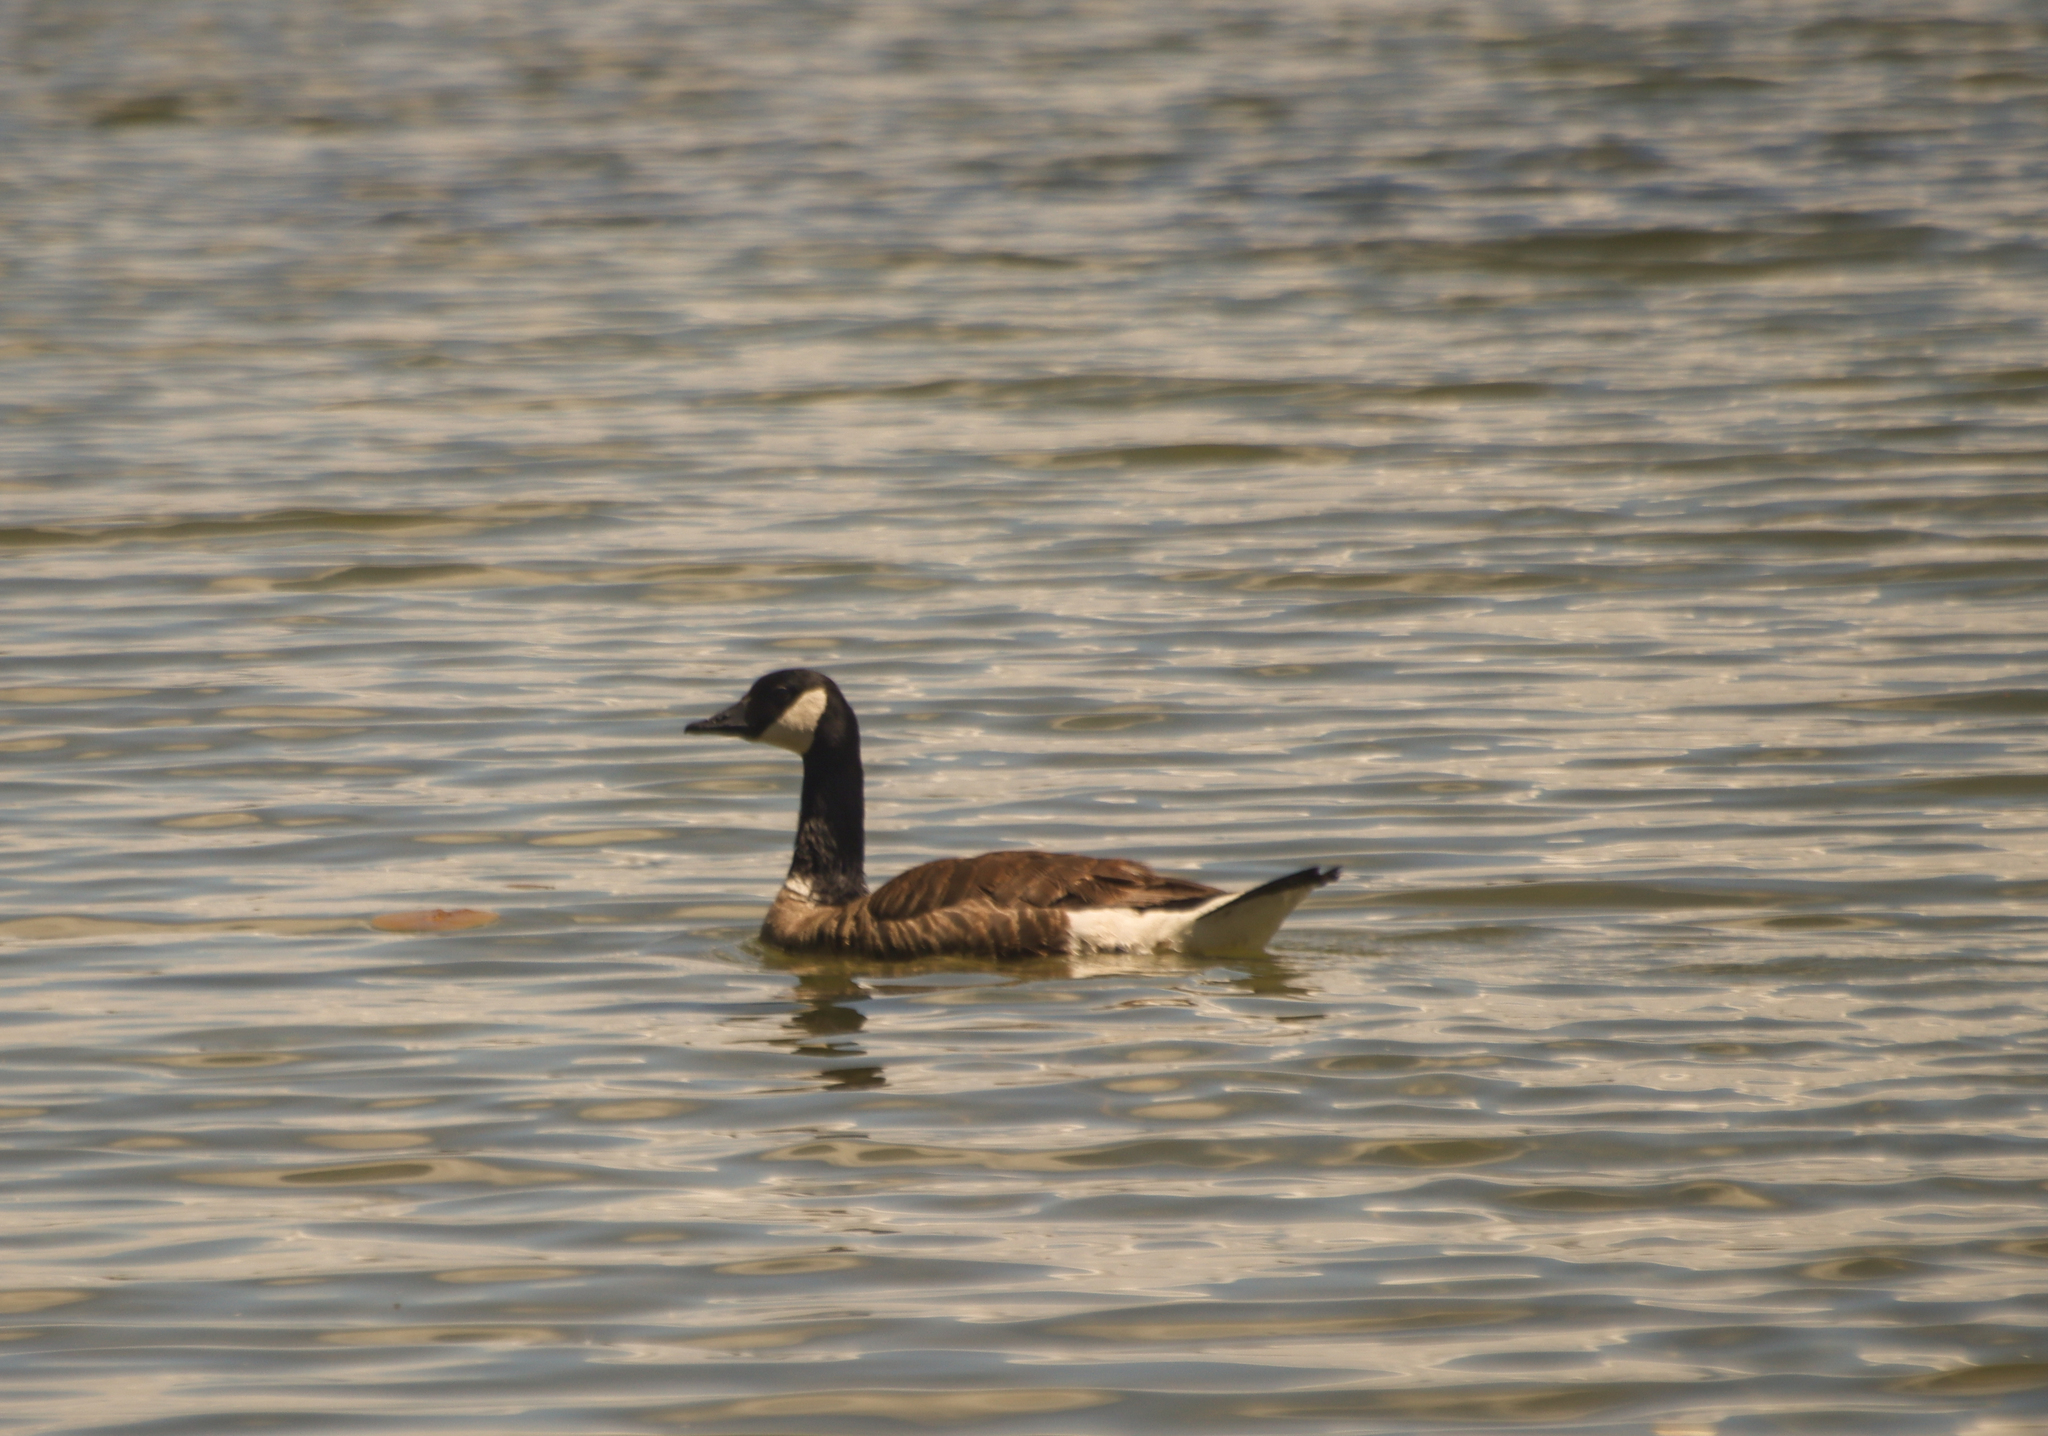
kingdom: Animalia
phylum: Chordata
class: Aves
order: Anseriformes
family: Anatidae
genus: Branta
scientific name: Branta canadensis
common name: Canada goose
